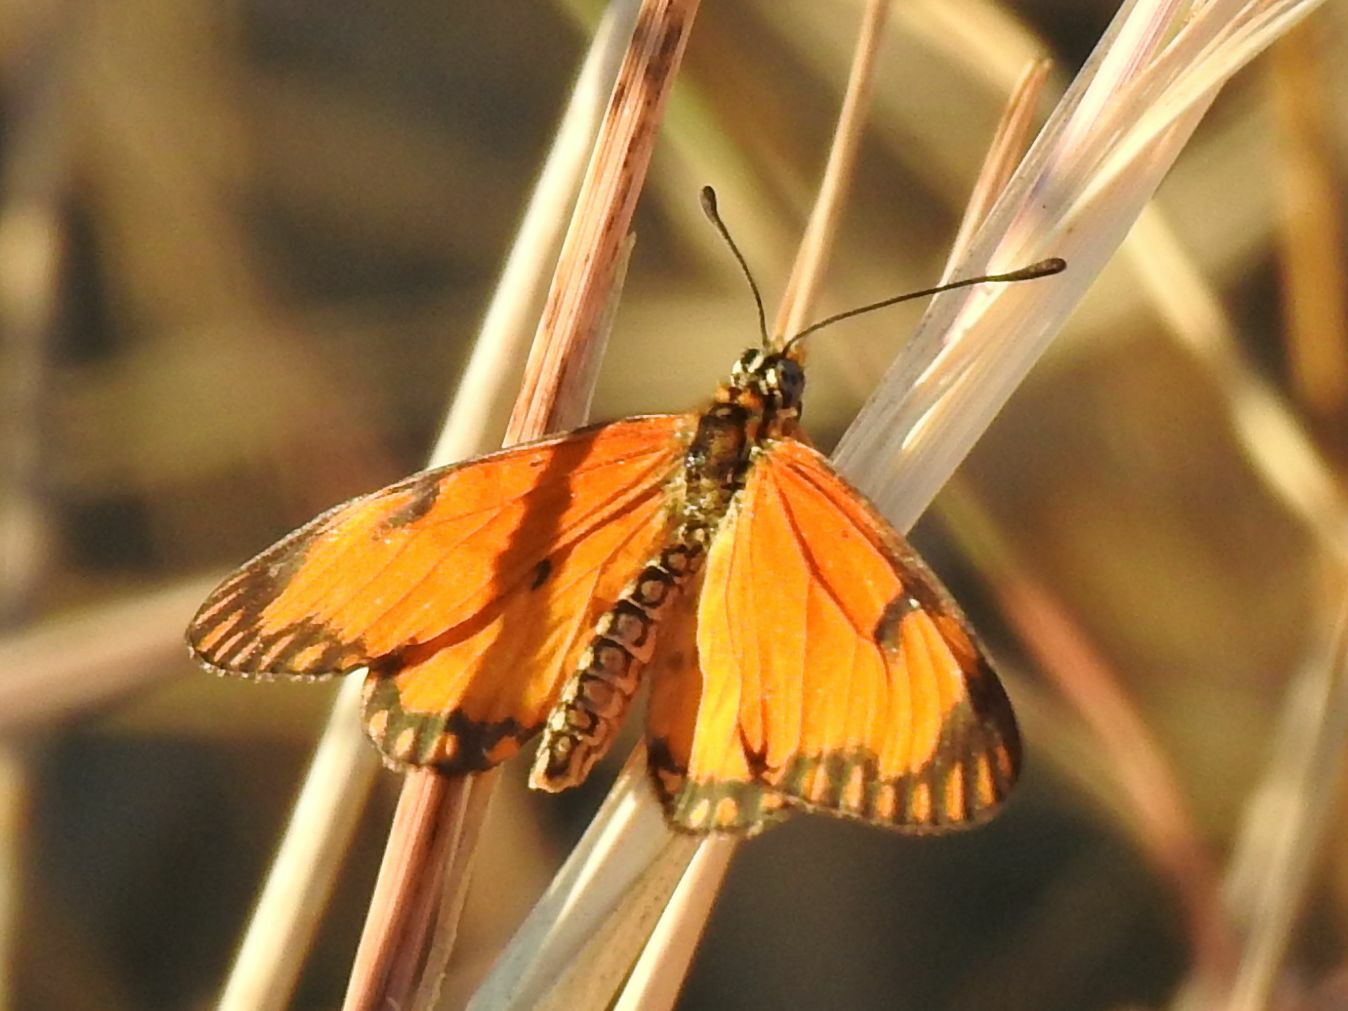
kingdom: Animalia
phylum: Arthropoda
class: Insecta
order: Lepidoptera
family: Nymphalidae
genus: Acraea
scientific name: Acraea Telchinia serena
